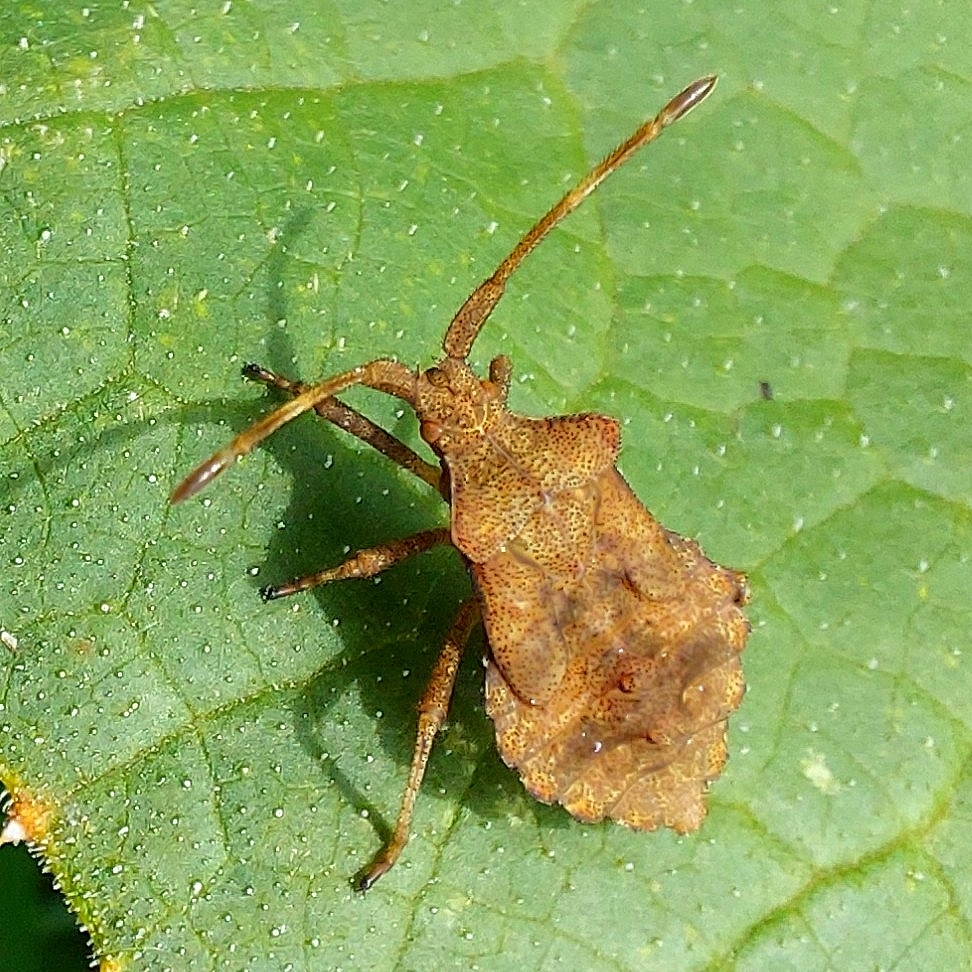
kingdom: Animalia
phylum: Arthropoda
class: Insecta
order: Hemiptera
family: Coreidae
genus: Coreus
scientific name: Coreus marginatus
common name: Dock bug
